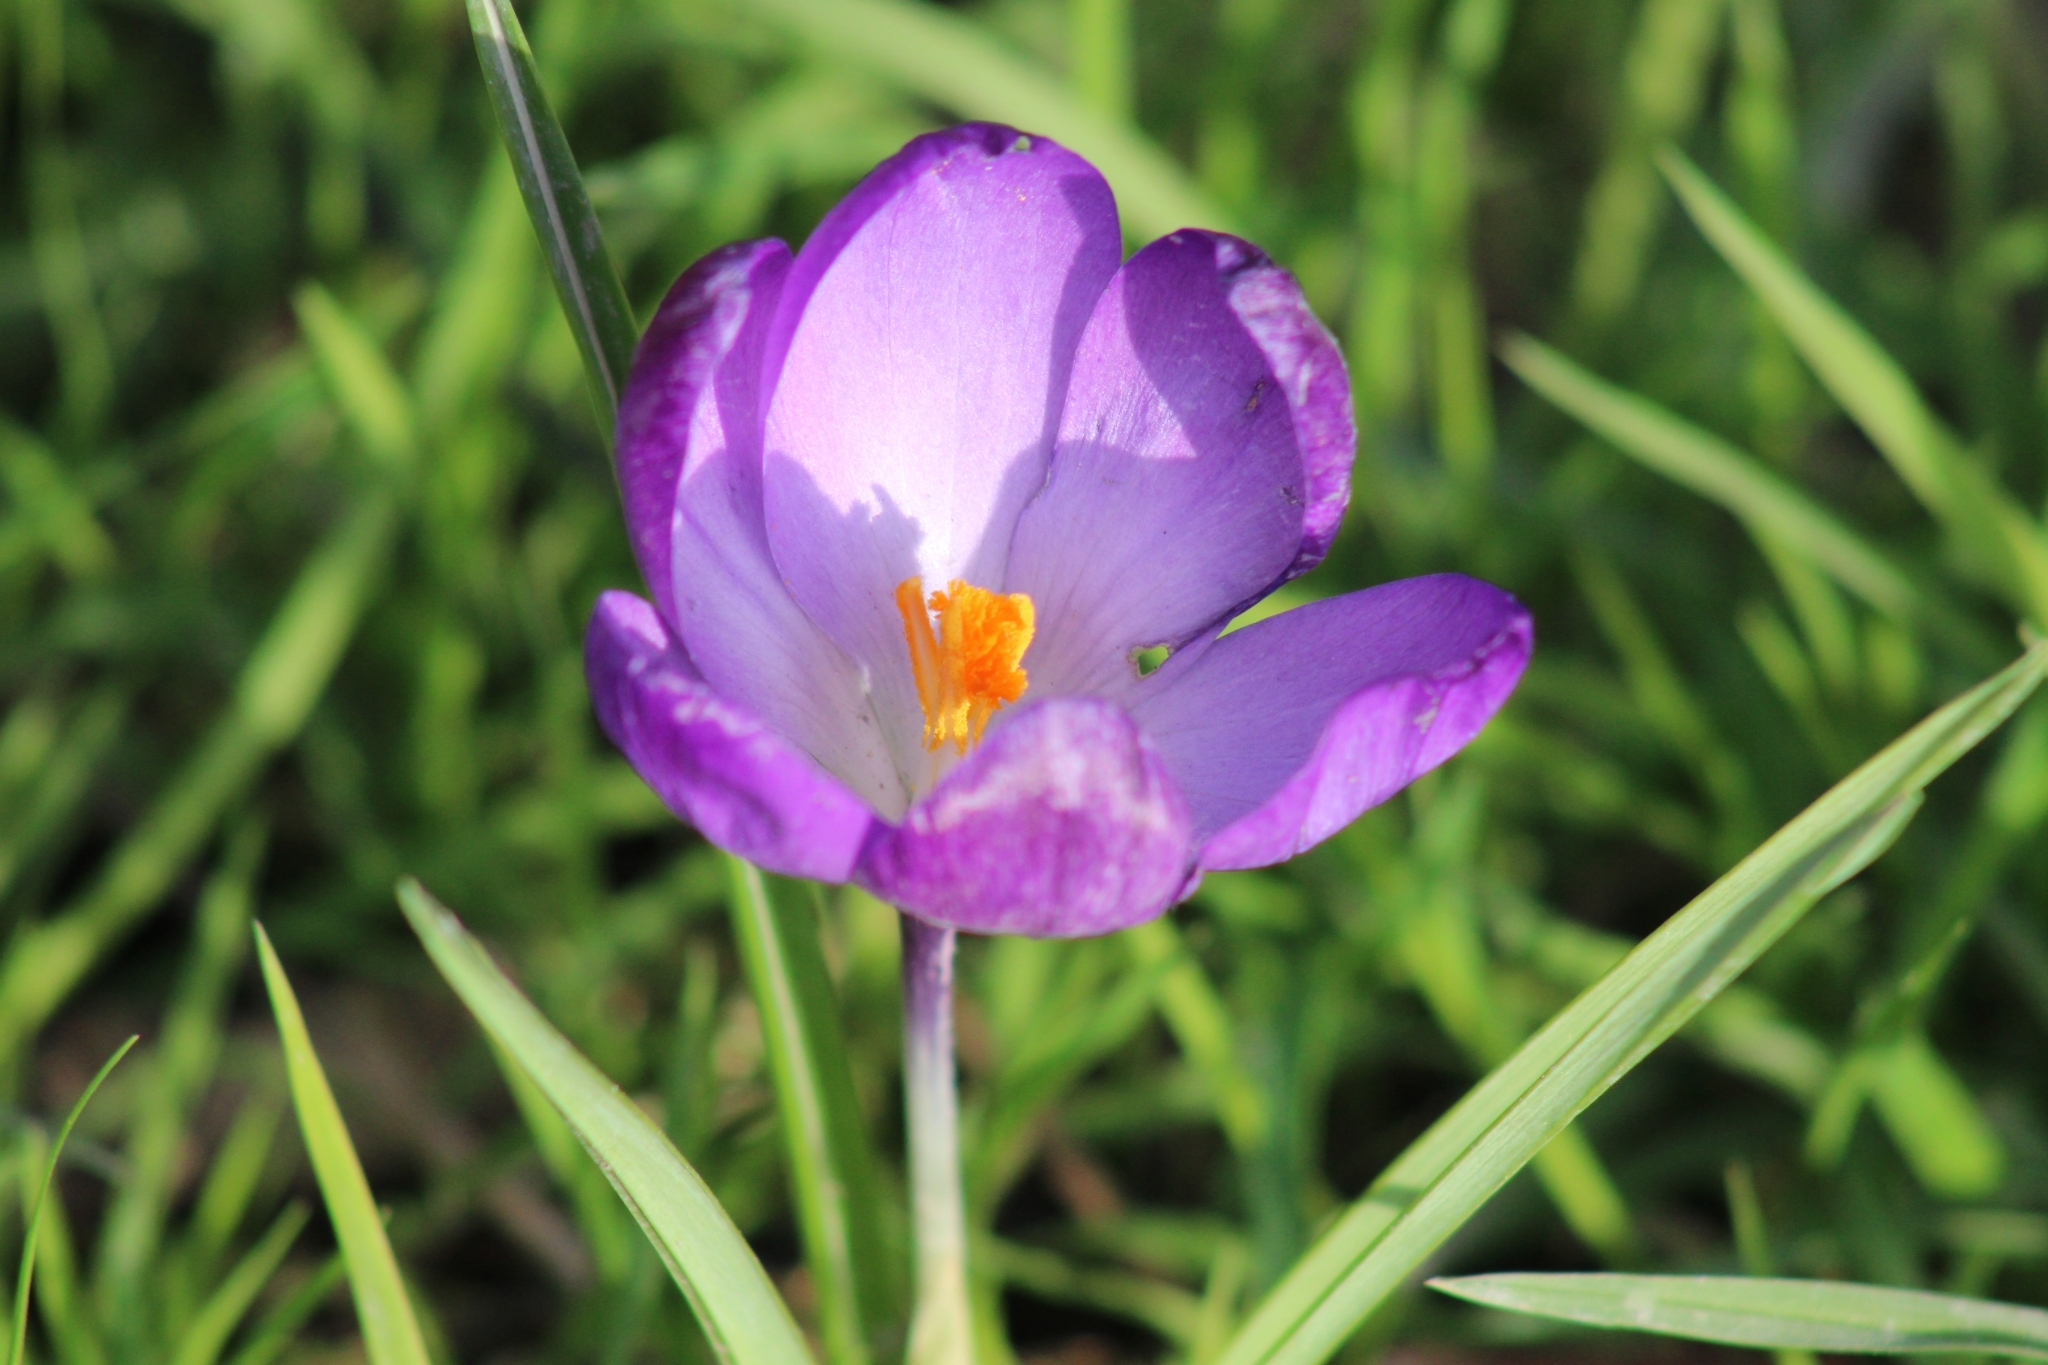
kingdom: Plantae
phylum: Tracheophyta
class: Liliopsida
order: Asparagales
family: Iridaceae
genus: Crocus
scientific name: Crocus neapolitanus
